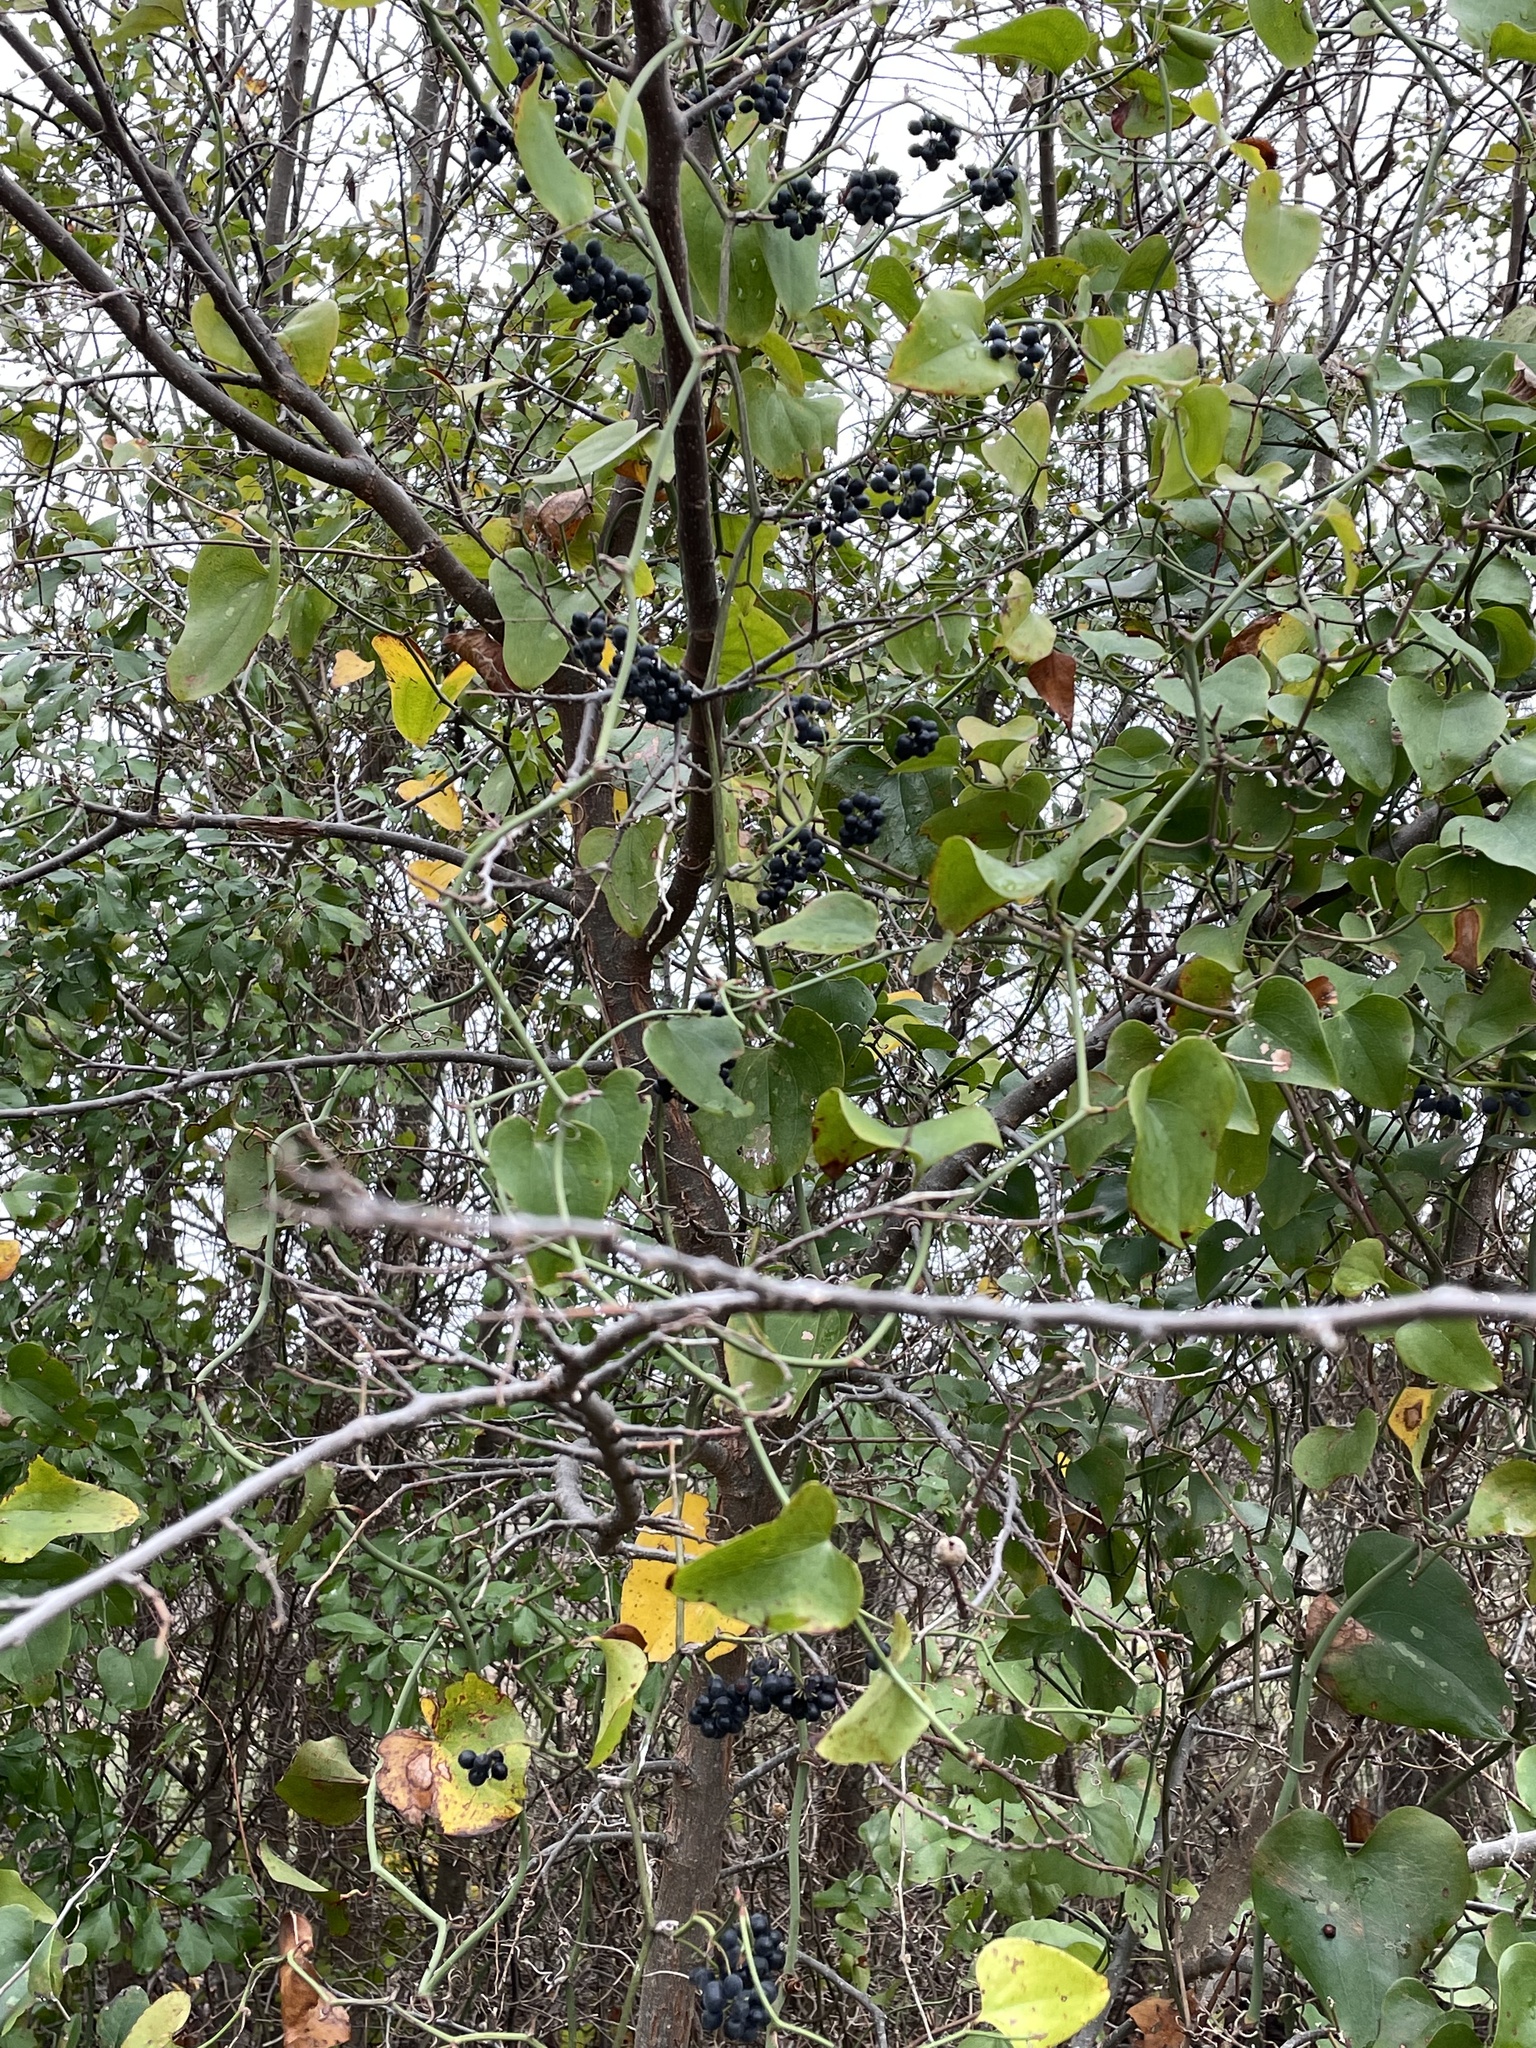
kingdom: Plantae
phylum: Tracheophyta
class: Liliopsida
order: Liliales
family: Smilacaceae
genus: Smilax
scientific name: Smilax bona-nox
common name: Catbrier
